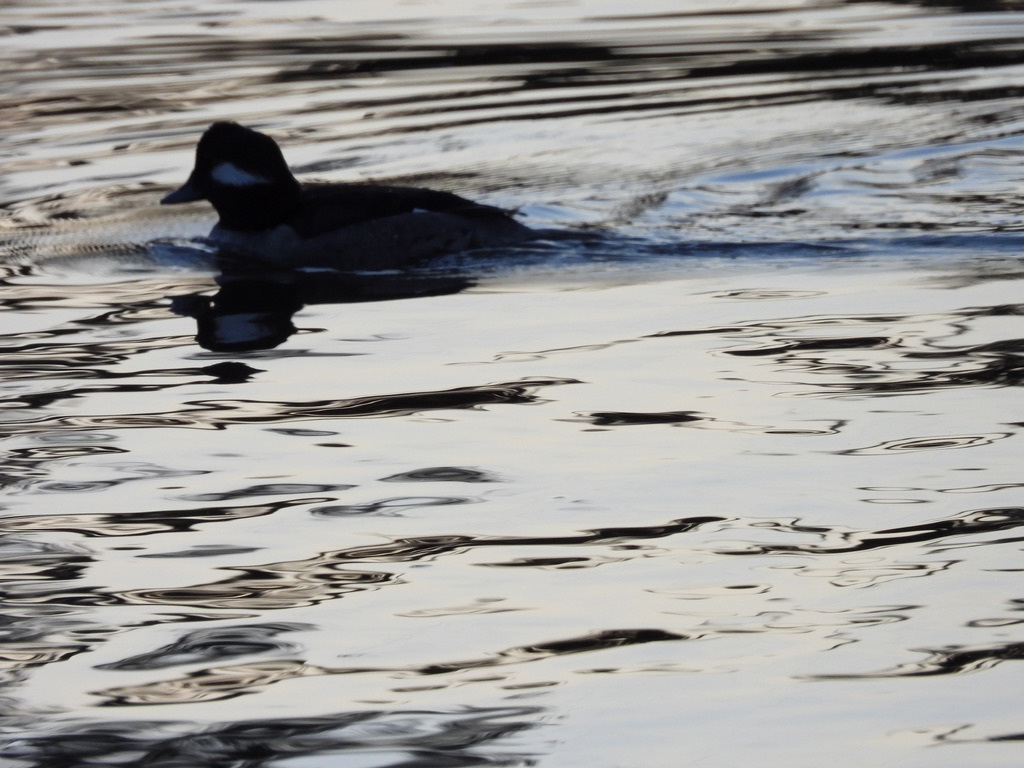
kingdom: Animalia
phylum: Chordata
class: Aves
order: Anseriformes
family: Anatidae
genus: Bucephala
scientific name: Bucephala albeola
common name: Bufflehead
